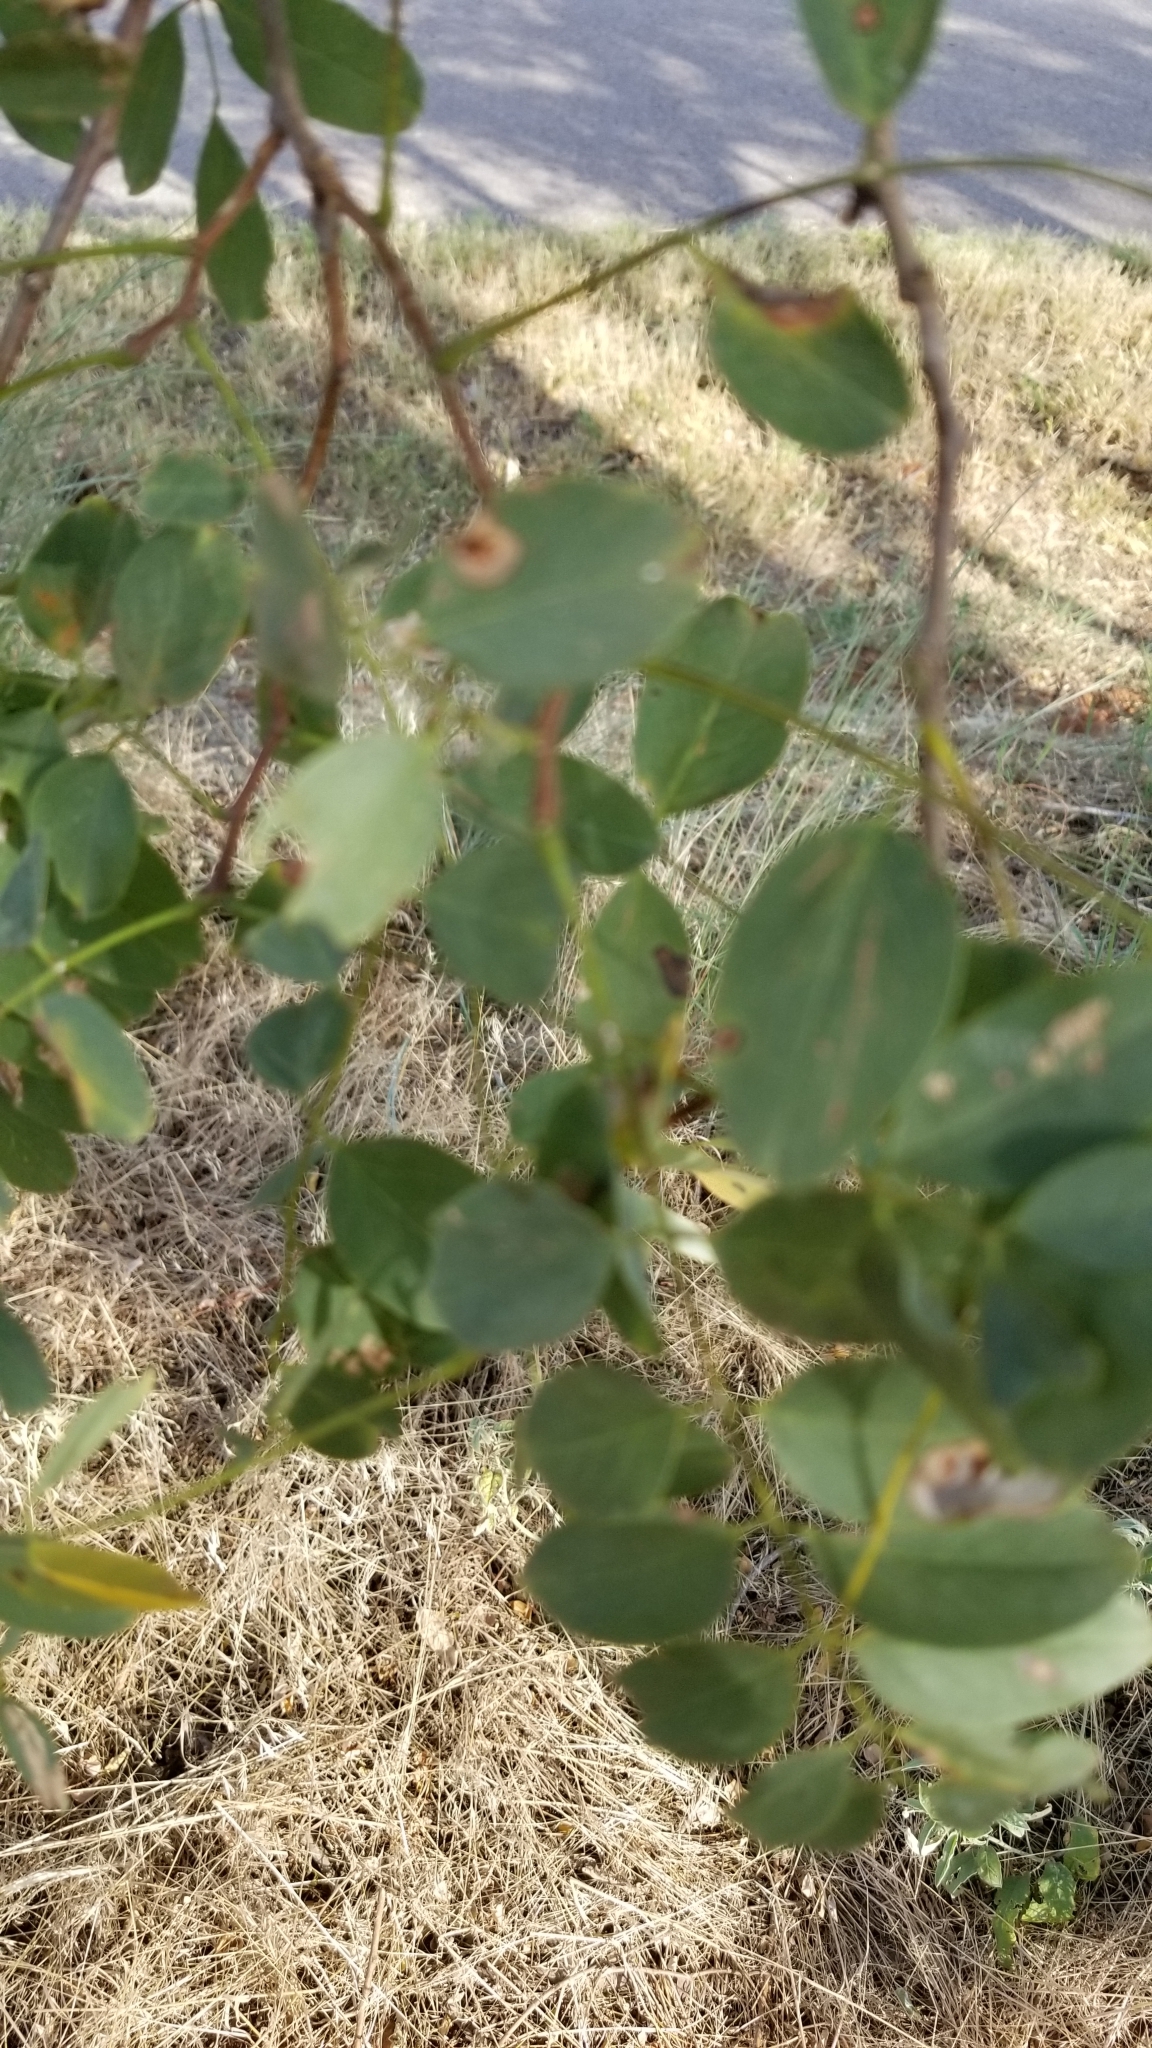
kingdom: Plantae
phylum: Tracheophyta
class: Magnoliopsida
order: Fabales
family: Fabaceae
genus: Robinia
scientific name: Robinia pseudoacacia
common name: Black locust
